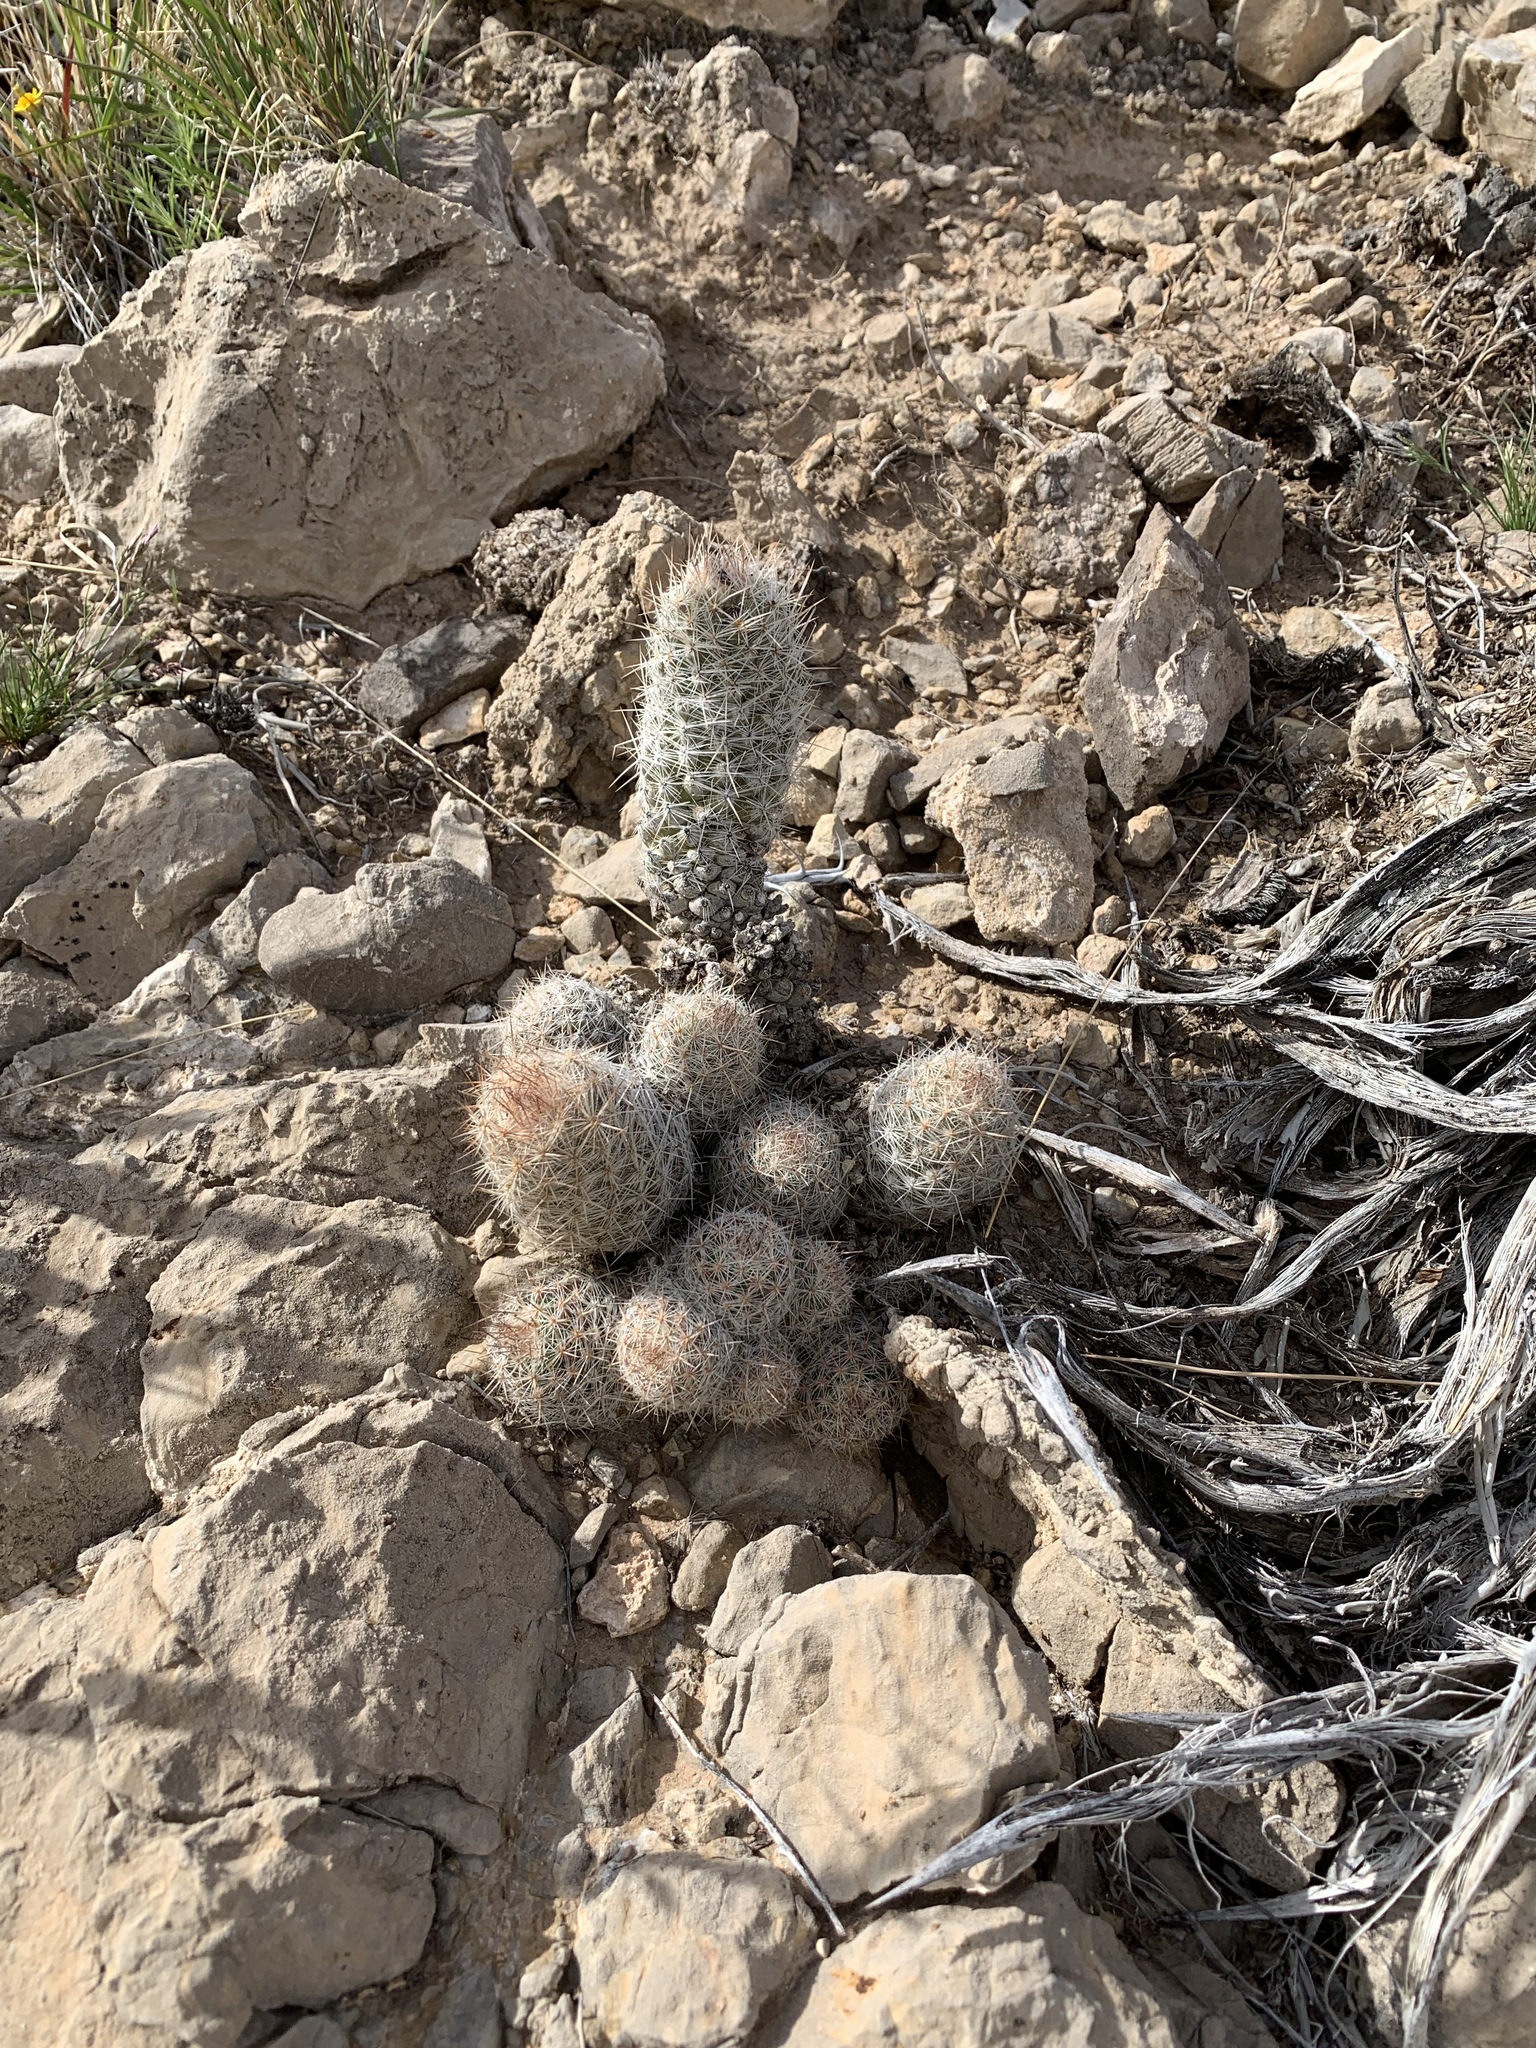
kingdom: Plantae
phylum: Tracheophyta
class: Magnoliopsida
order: Caryophyllales
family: Cactaceae
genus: Pelecyphora
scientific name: Pelecyphora tuberculosa
